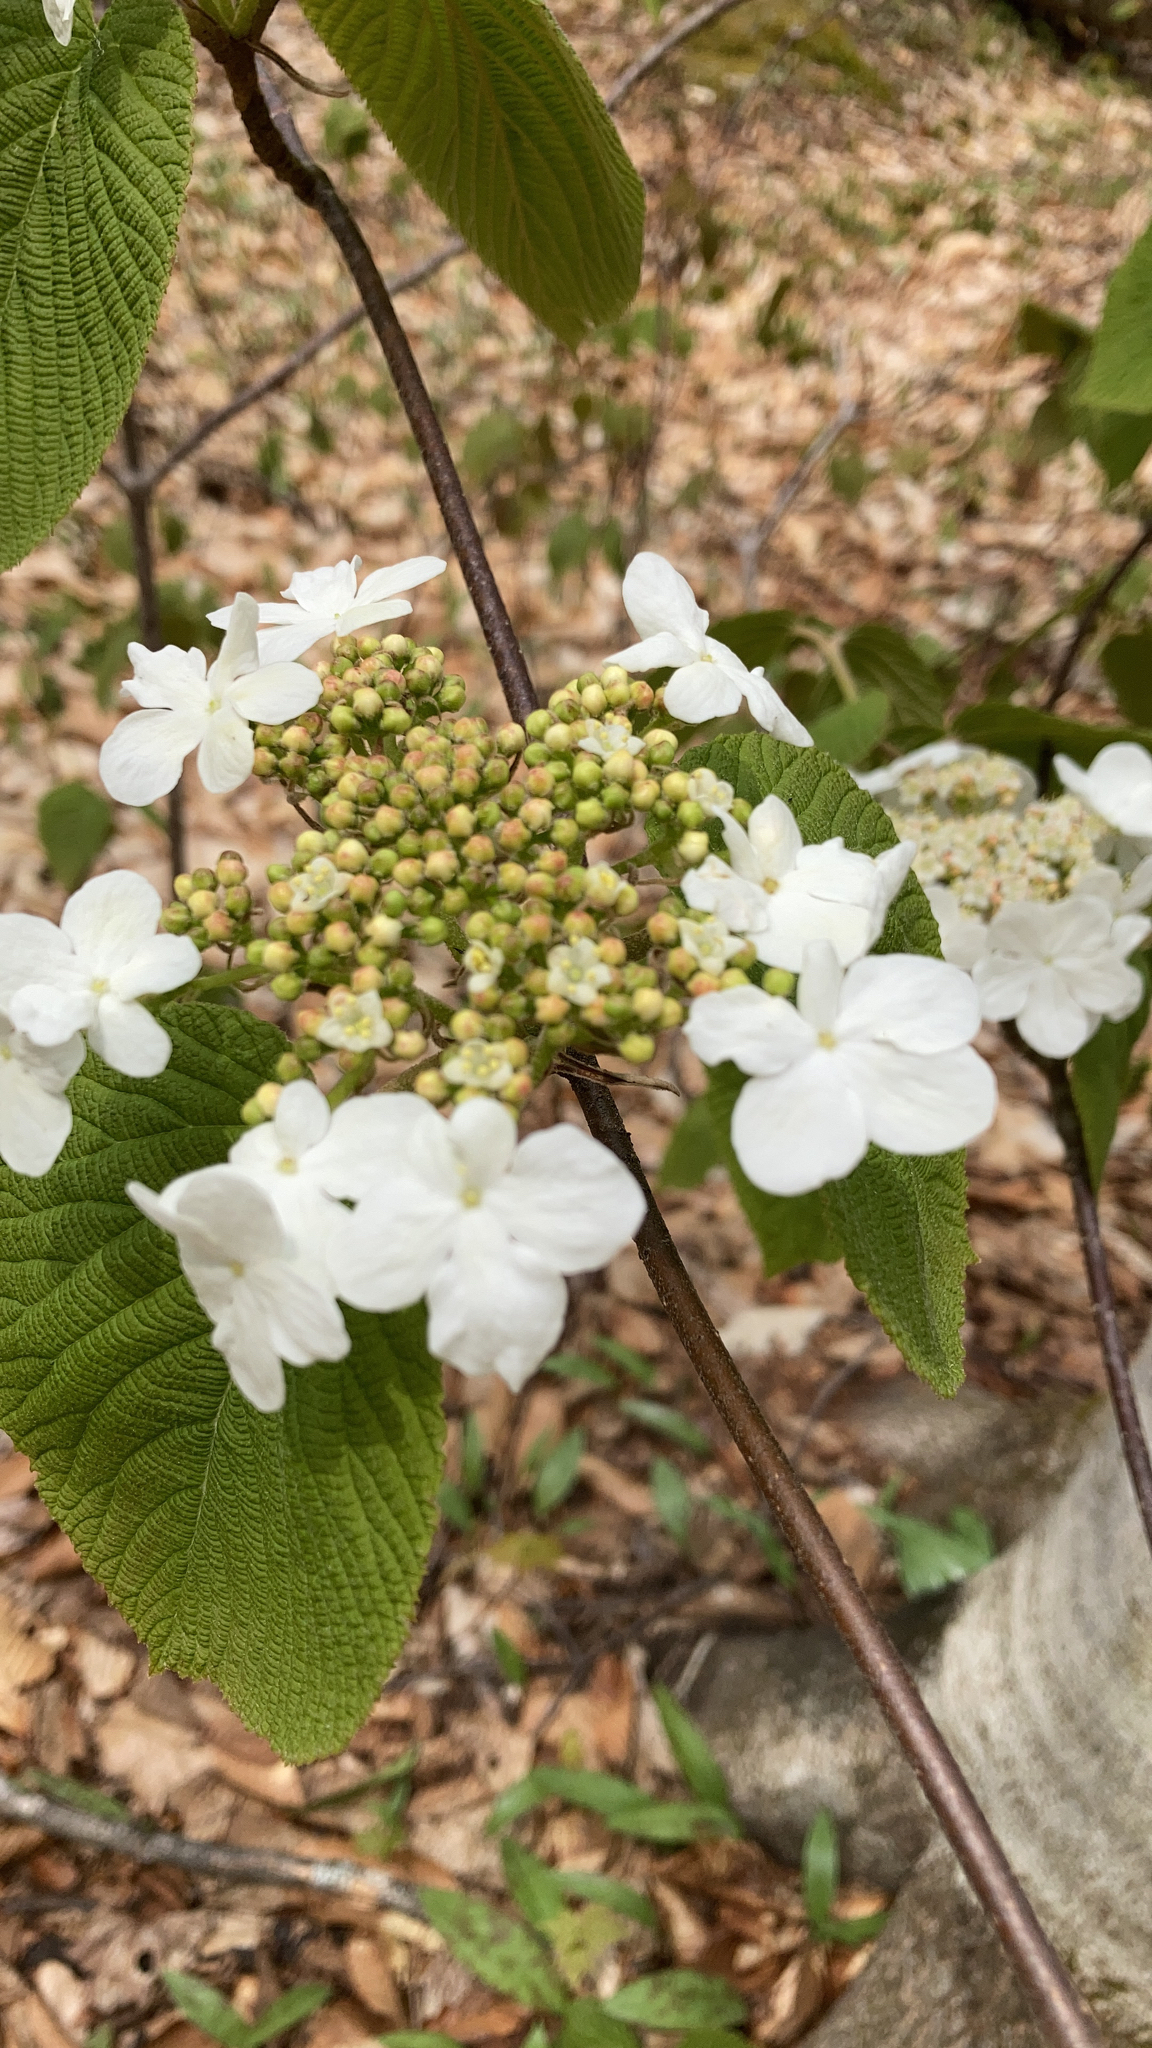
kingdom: Plantae
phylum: Tracheophyta
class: Magnoliopsida
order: Dipsacales
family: Viburnaceae
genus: Viburnum
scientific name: Viburnum lantanoides
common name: Hobblebush
